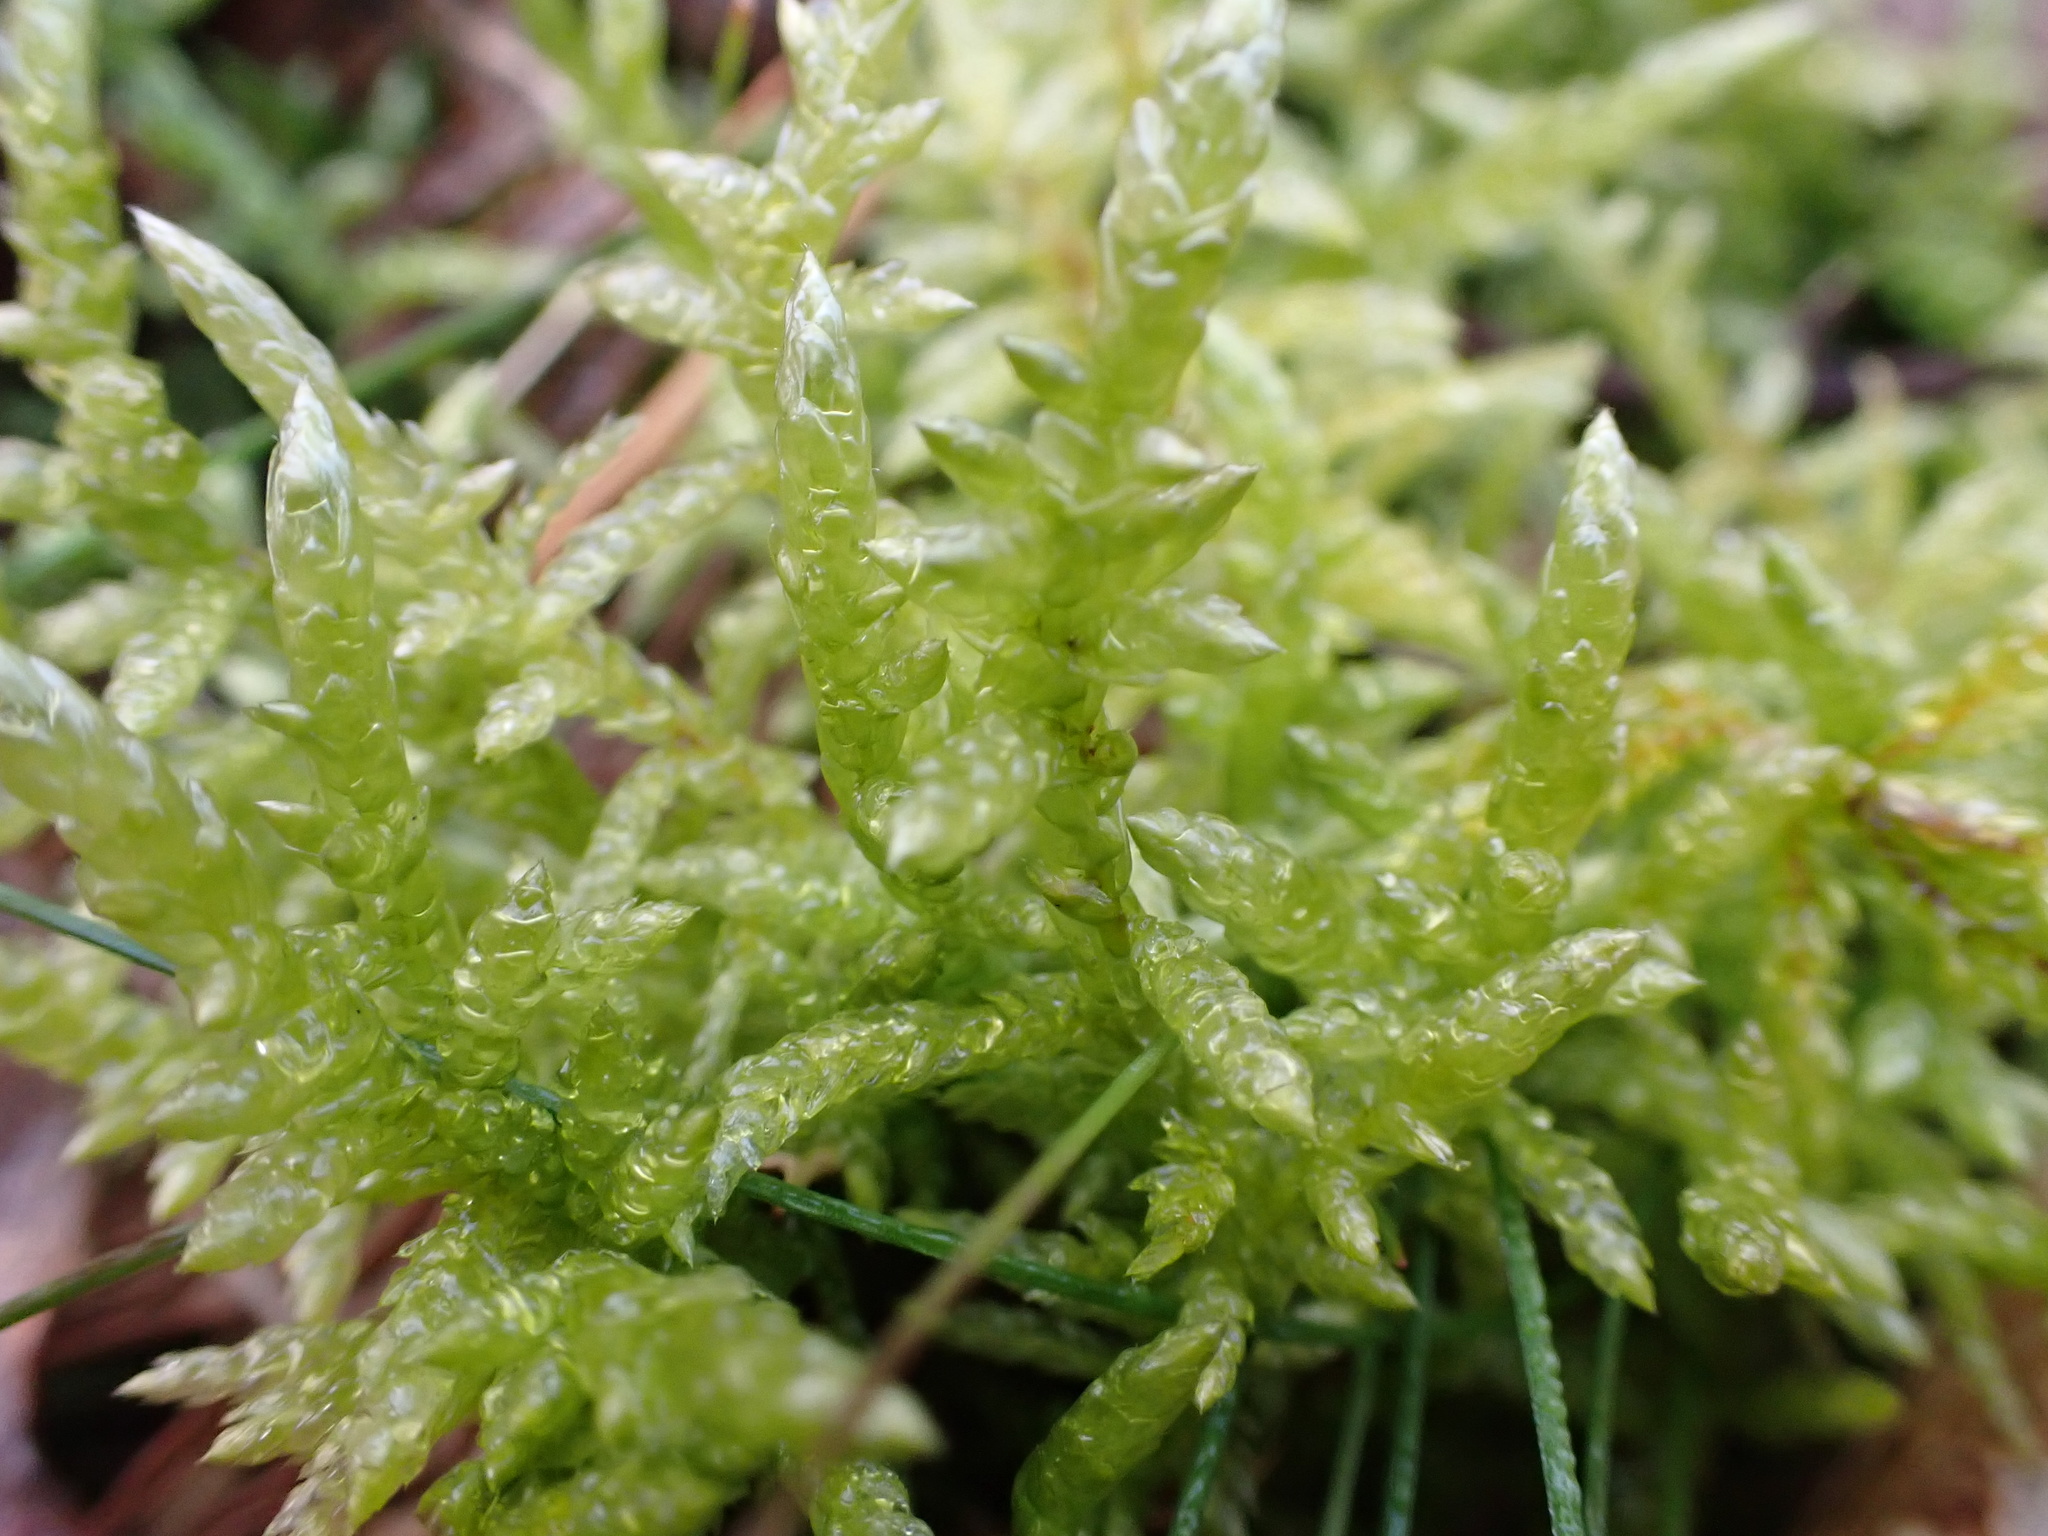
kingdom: Plantae
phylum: Bryophyta
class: Bryopsida
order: Hypnales
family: Brachytheciaceae
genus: Pseudoscleropodium
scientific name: Pseudoscleropodium purum
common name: Neat feather-moss
